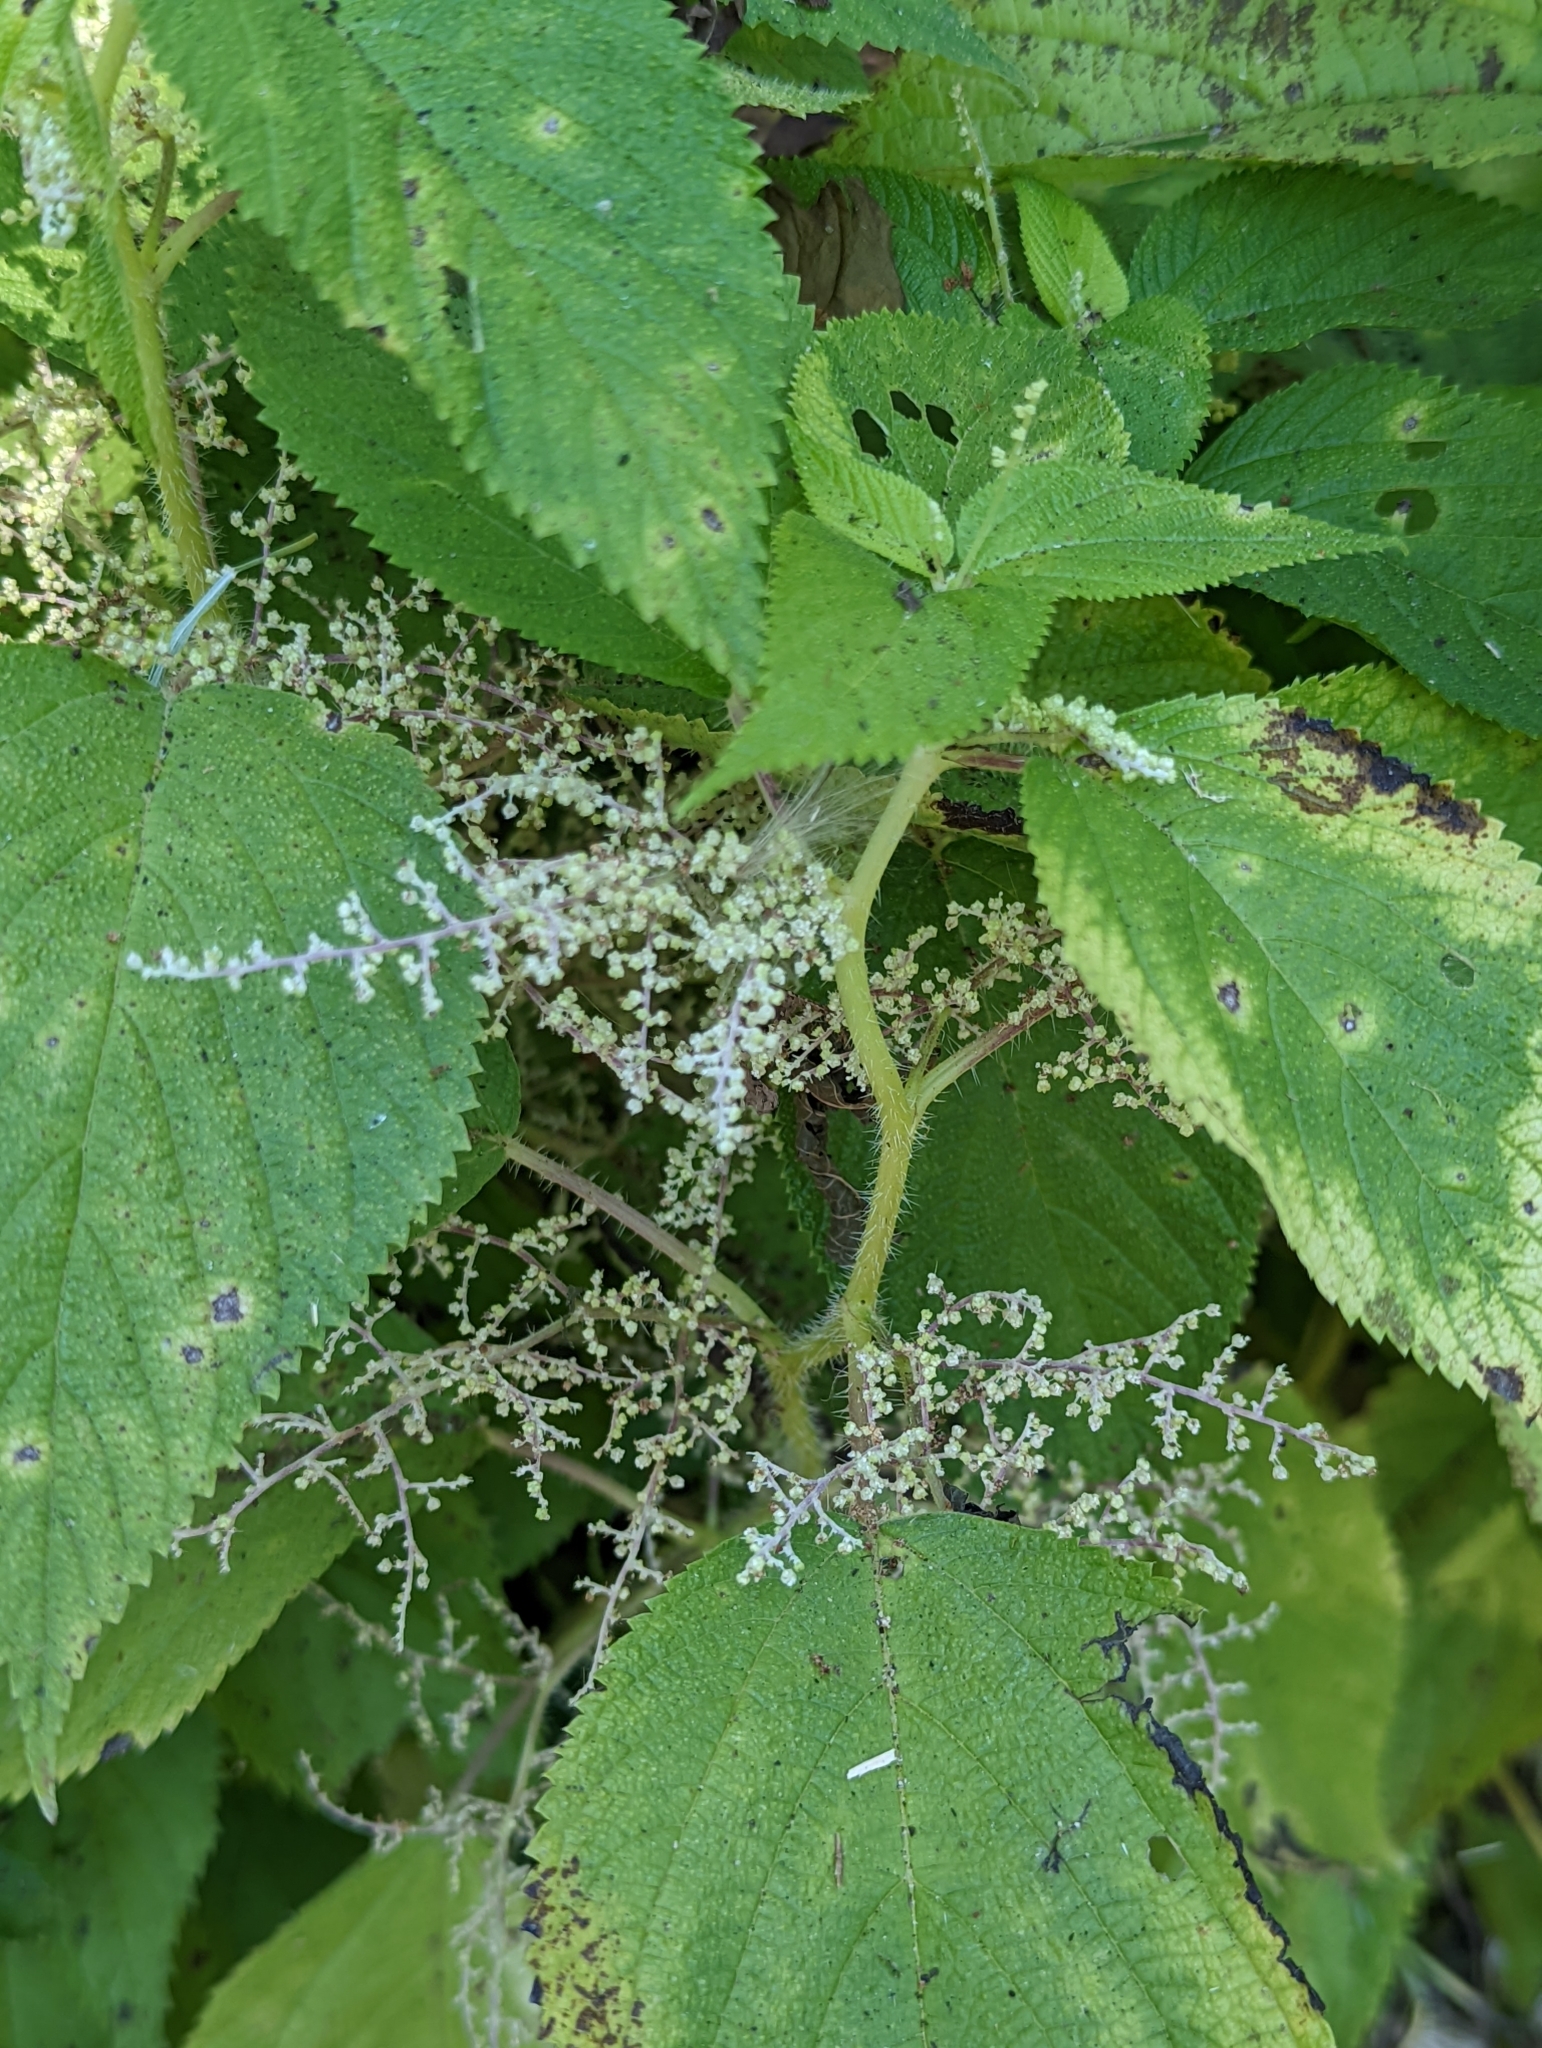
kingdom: Plantae
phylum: Tracheophyta
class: Magnoliopsida
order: Rosales
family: Urticaceae
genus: Laportea
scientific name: Laportea canadensis
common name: Canada nettle
